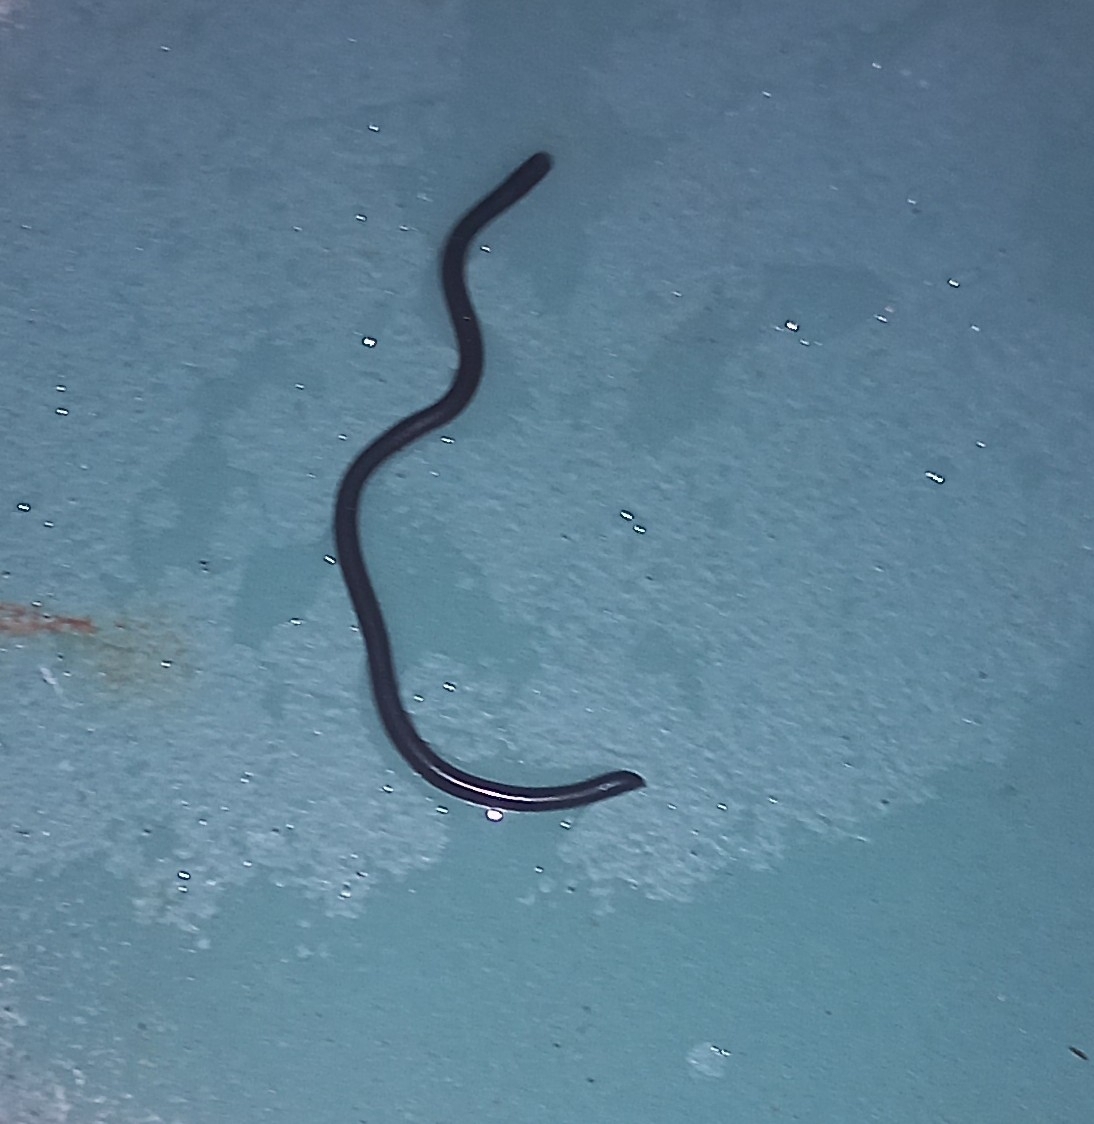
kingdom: Animalia
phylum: Chordata
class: Squamata
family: Typhlopidae
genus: Indotyphlops
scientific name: Indotyphlops braminus
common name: Brahminy blindsnake
